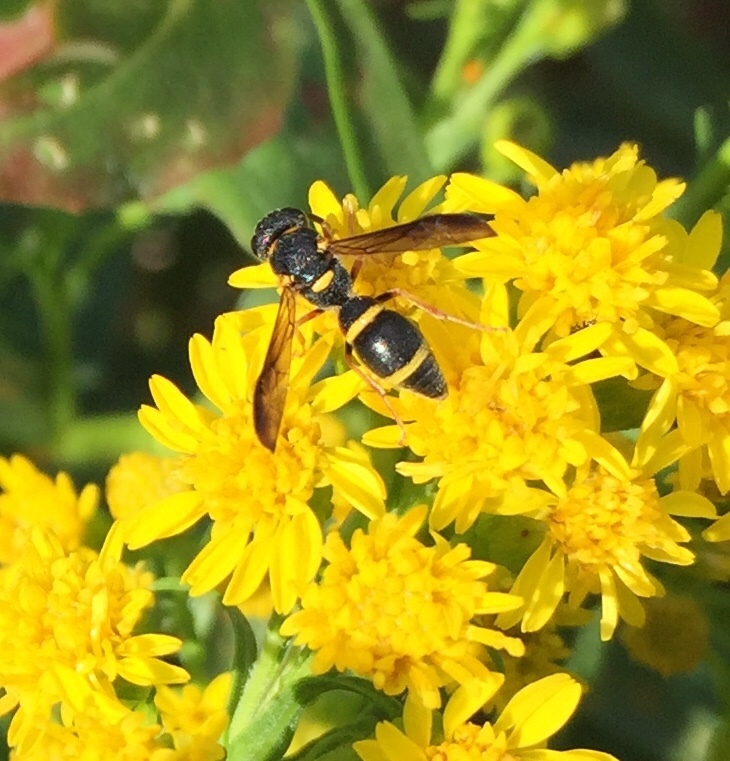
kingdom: Animalia
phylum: Arthropoda
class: Insecta
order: Hymenoptera
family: Eumenidae
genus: Parancistrocerus
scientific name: Parancistrocerus perennis
